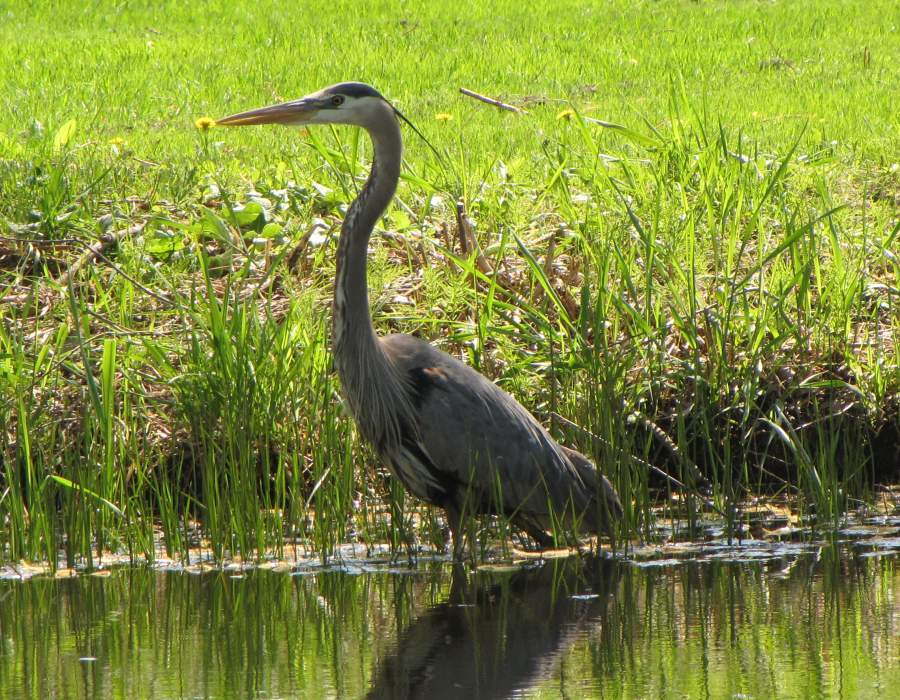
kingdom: Animalia
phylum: Chordata
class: Aves
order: Pelecaniformes
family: Ardeidae
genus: Ardea
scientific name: Ardea herodias
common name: Great blue heron
